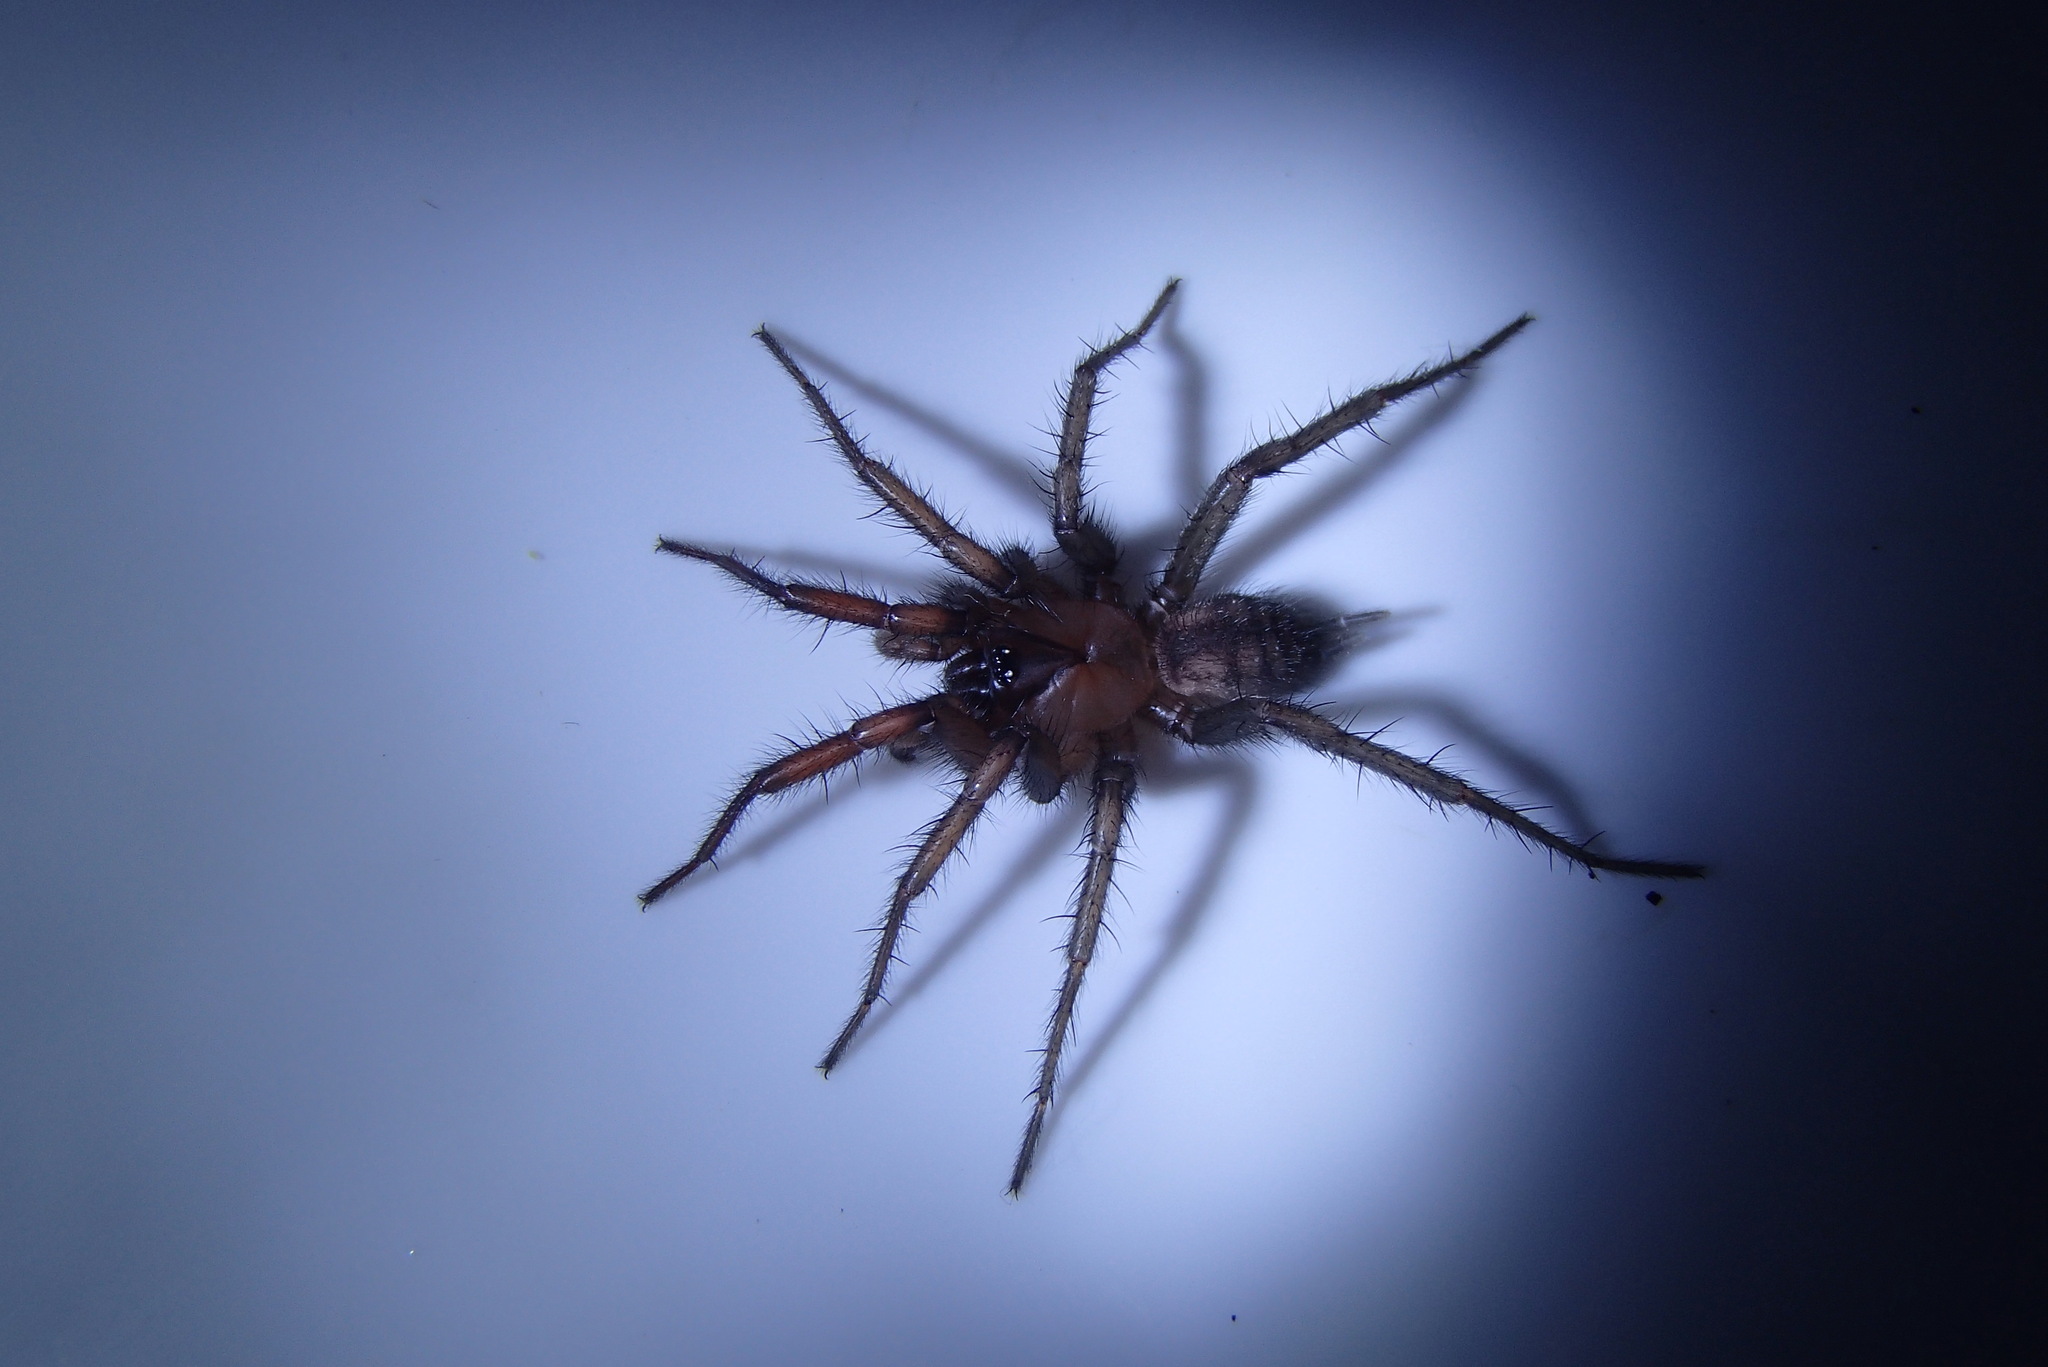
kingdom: Animalia
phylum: Arthropoda
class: Arachnida
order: Araneae
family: Hexathelidae
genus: Paraembolides
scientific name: Paraembolides variabilis
